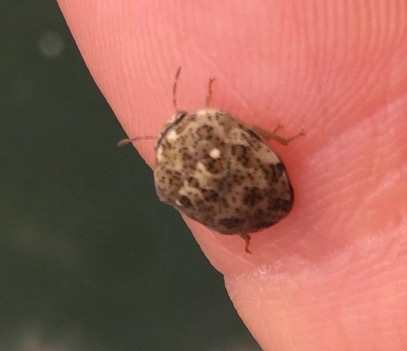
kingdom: Animalia
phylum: Arthropoda
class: Insecta
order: Hemiptera
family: Scutelleridae
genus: Sphaerocoris
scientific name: Sphaerocoris
